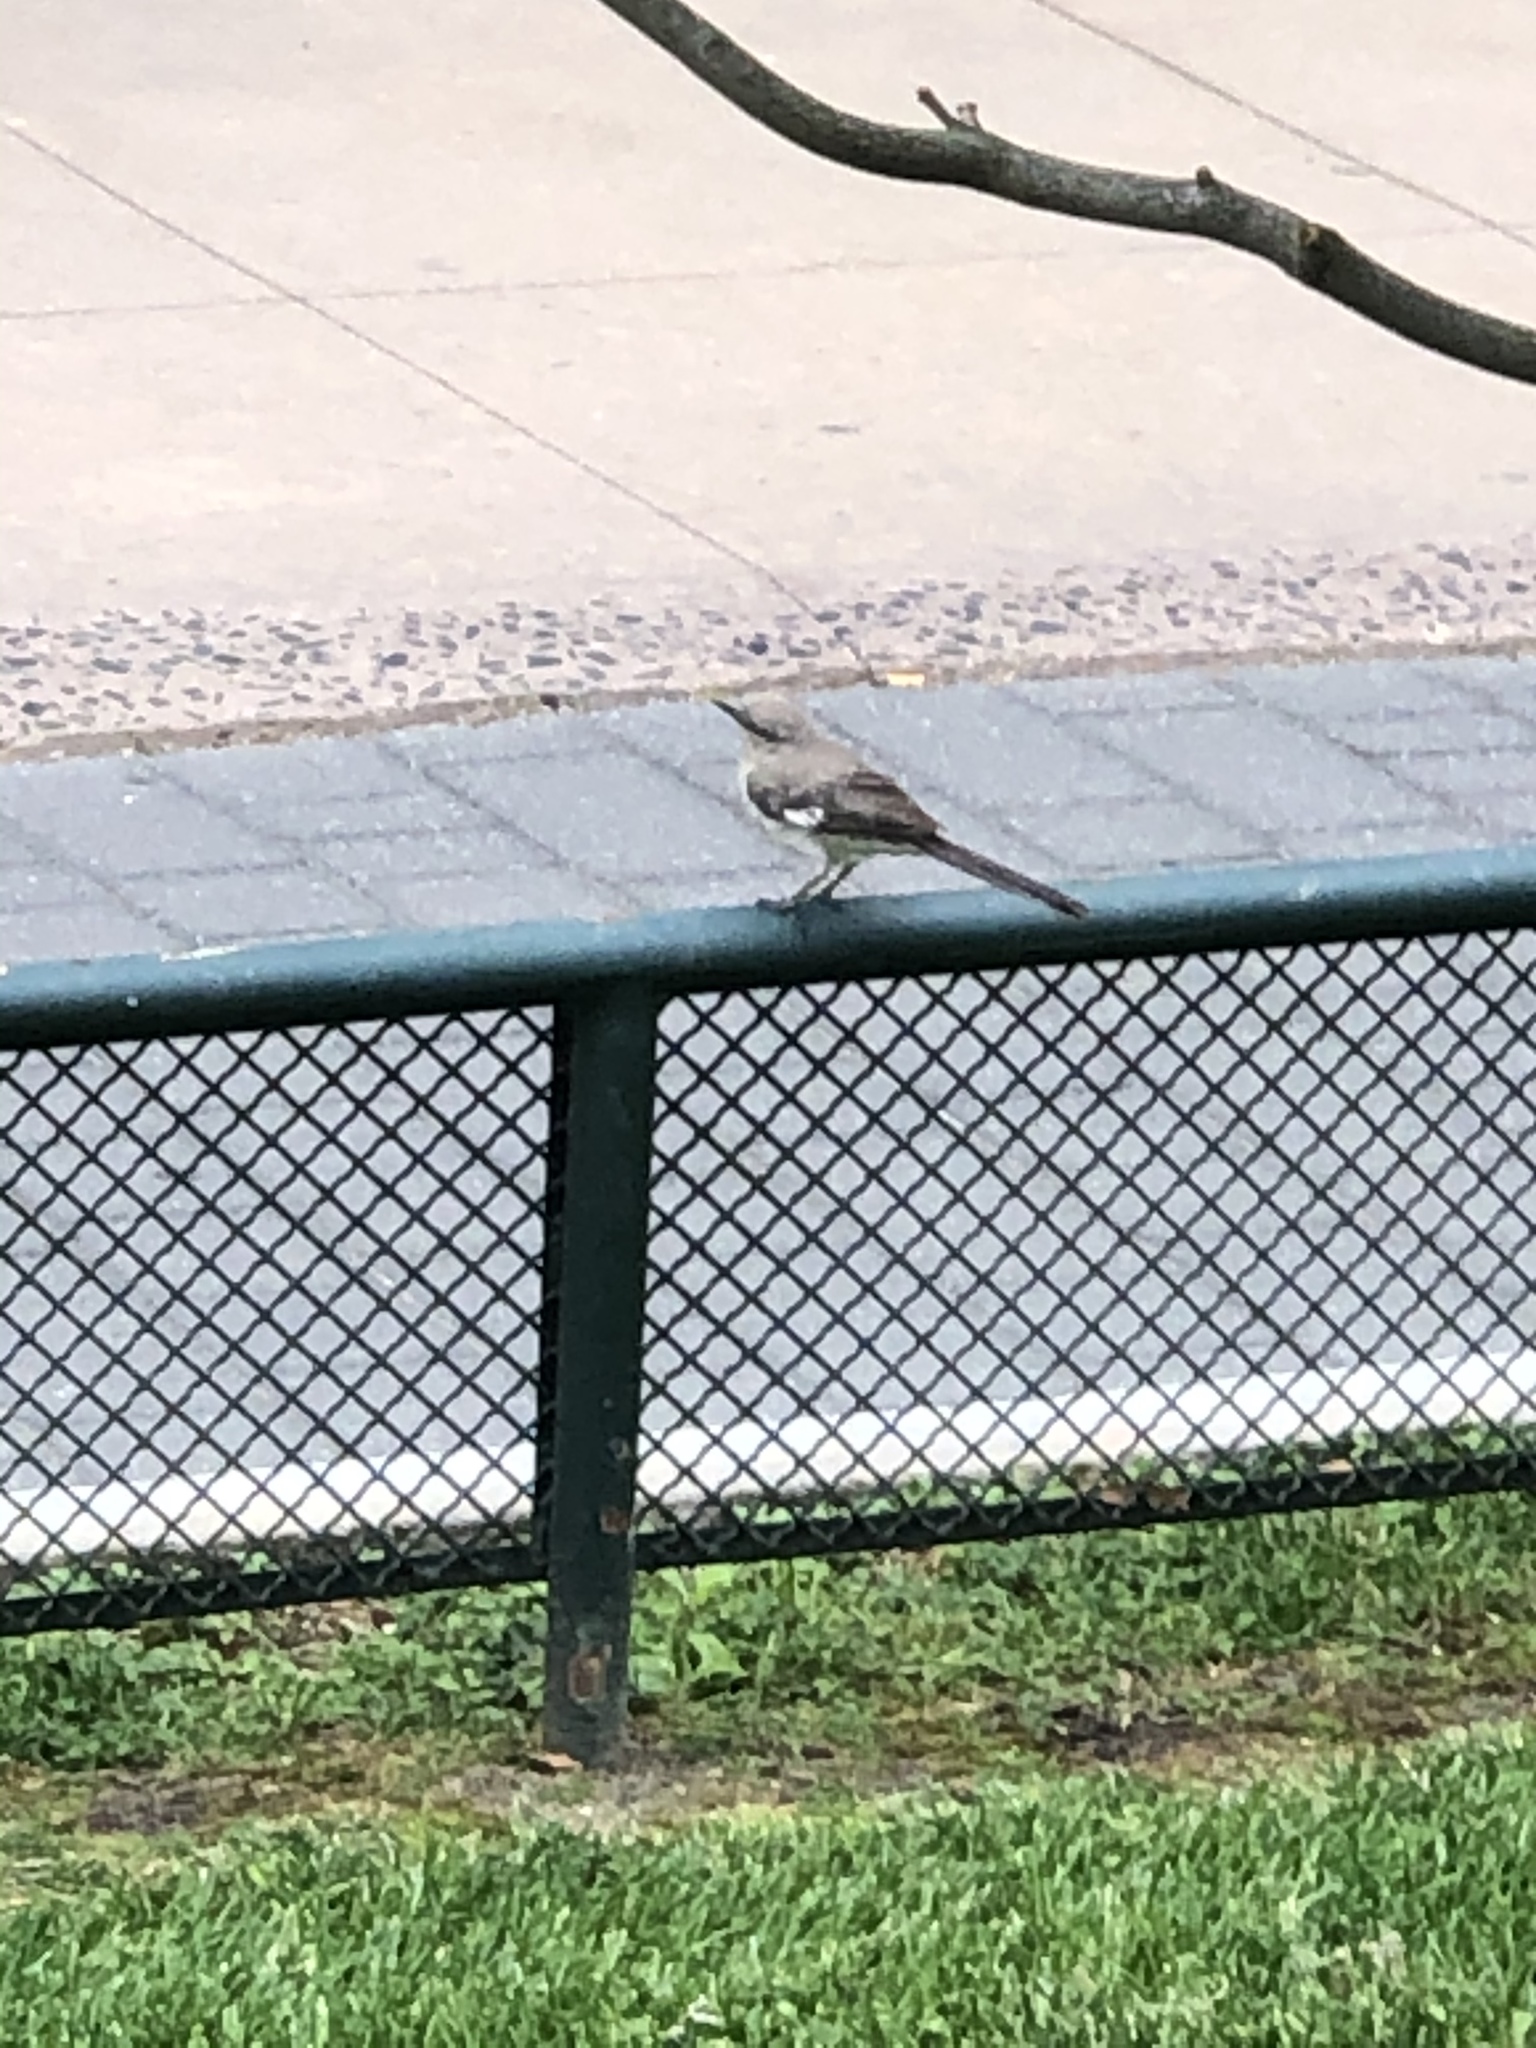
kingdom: Animalia
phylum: Chordata
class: Aves
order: Passeriformes
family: Mimidae
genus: Mimus
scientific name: Mimus polyglottos
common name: Northern mockingbird
